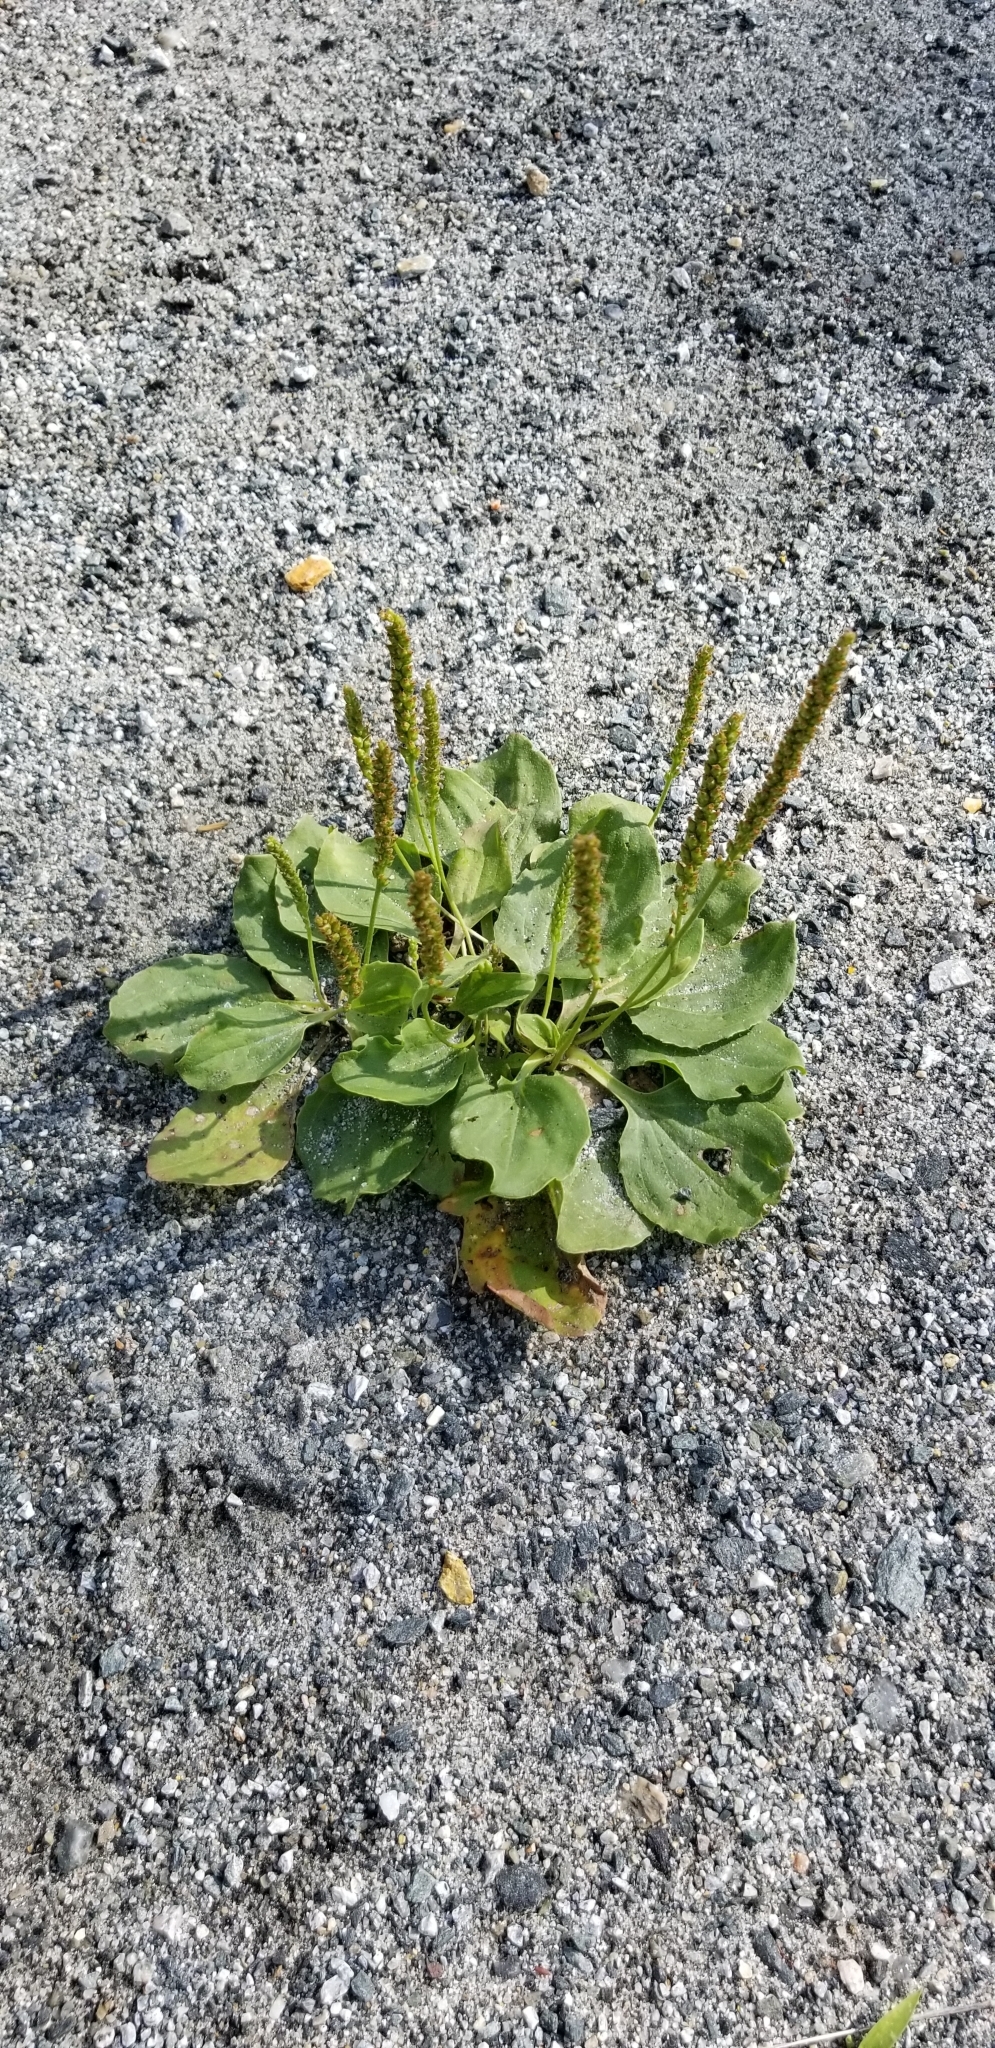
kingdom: Plantae
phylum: Tracheophyta
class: Magnoliopsida
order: Lamiales
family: Plantaginaceae
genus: Plantago
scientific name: Plantago major
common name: Common plantain
